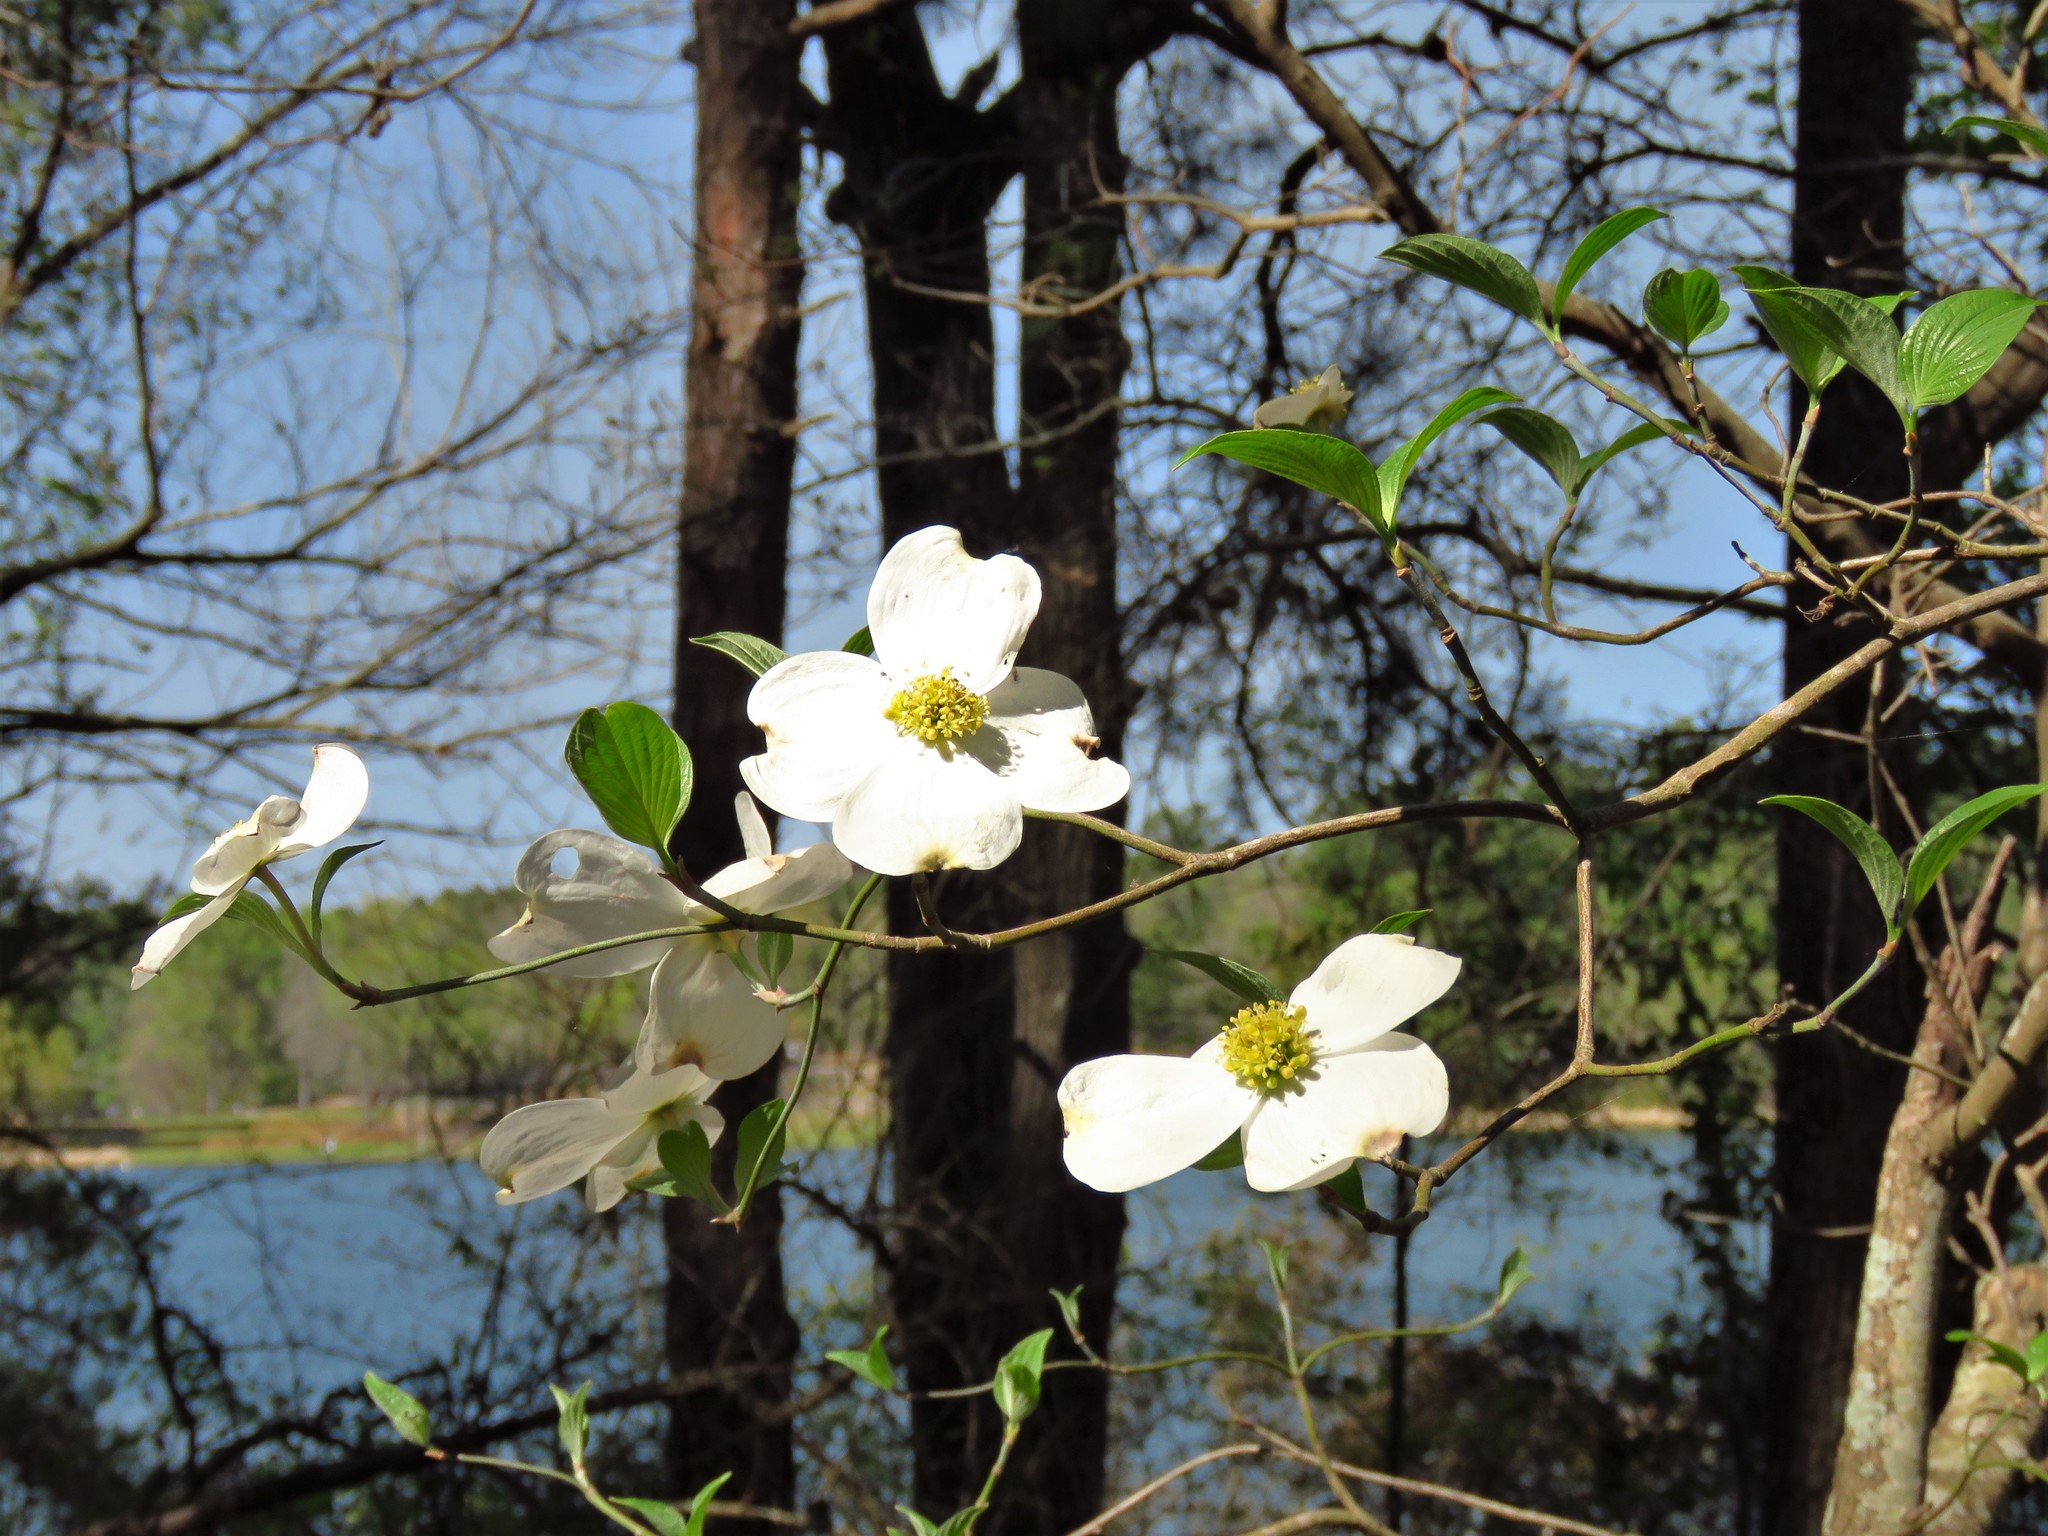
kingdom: Plantae
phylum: Tracheophyta
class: Magnoliopsida
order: Cornales
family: Cornaceae
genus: Cornus
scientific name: Cornus florida
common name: Flowering dogwood
